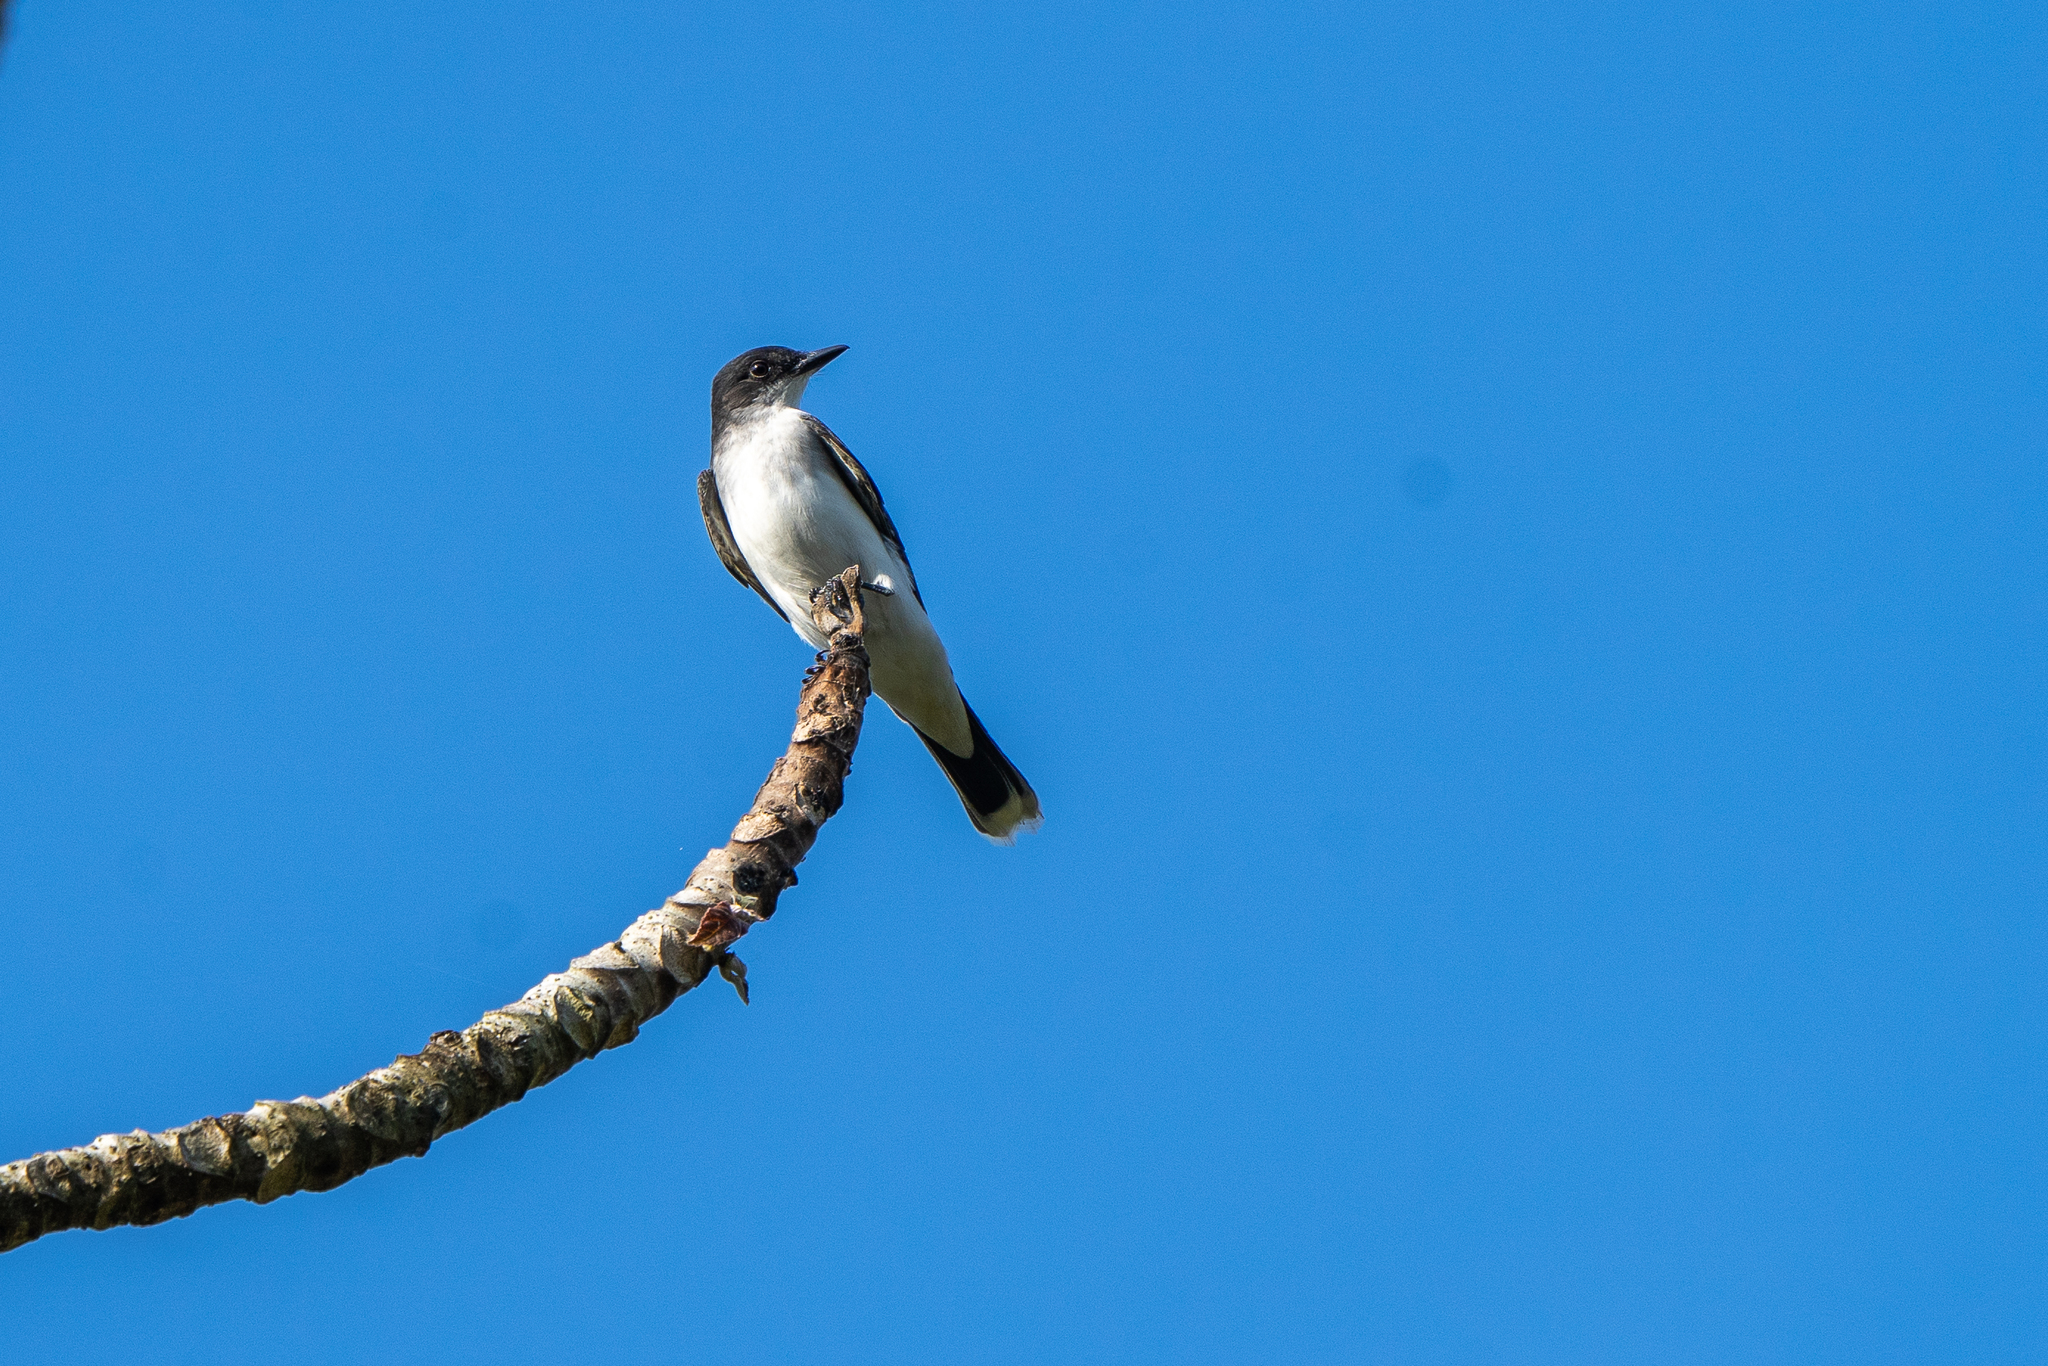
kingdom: Animalia
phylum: Chordata
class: Aves
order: Passeriformes
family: Tyrannidae
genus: Tyrannus
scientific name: Tyrannus tyrannus
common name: Eastern kingbird
